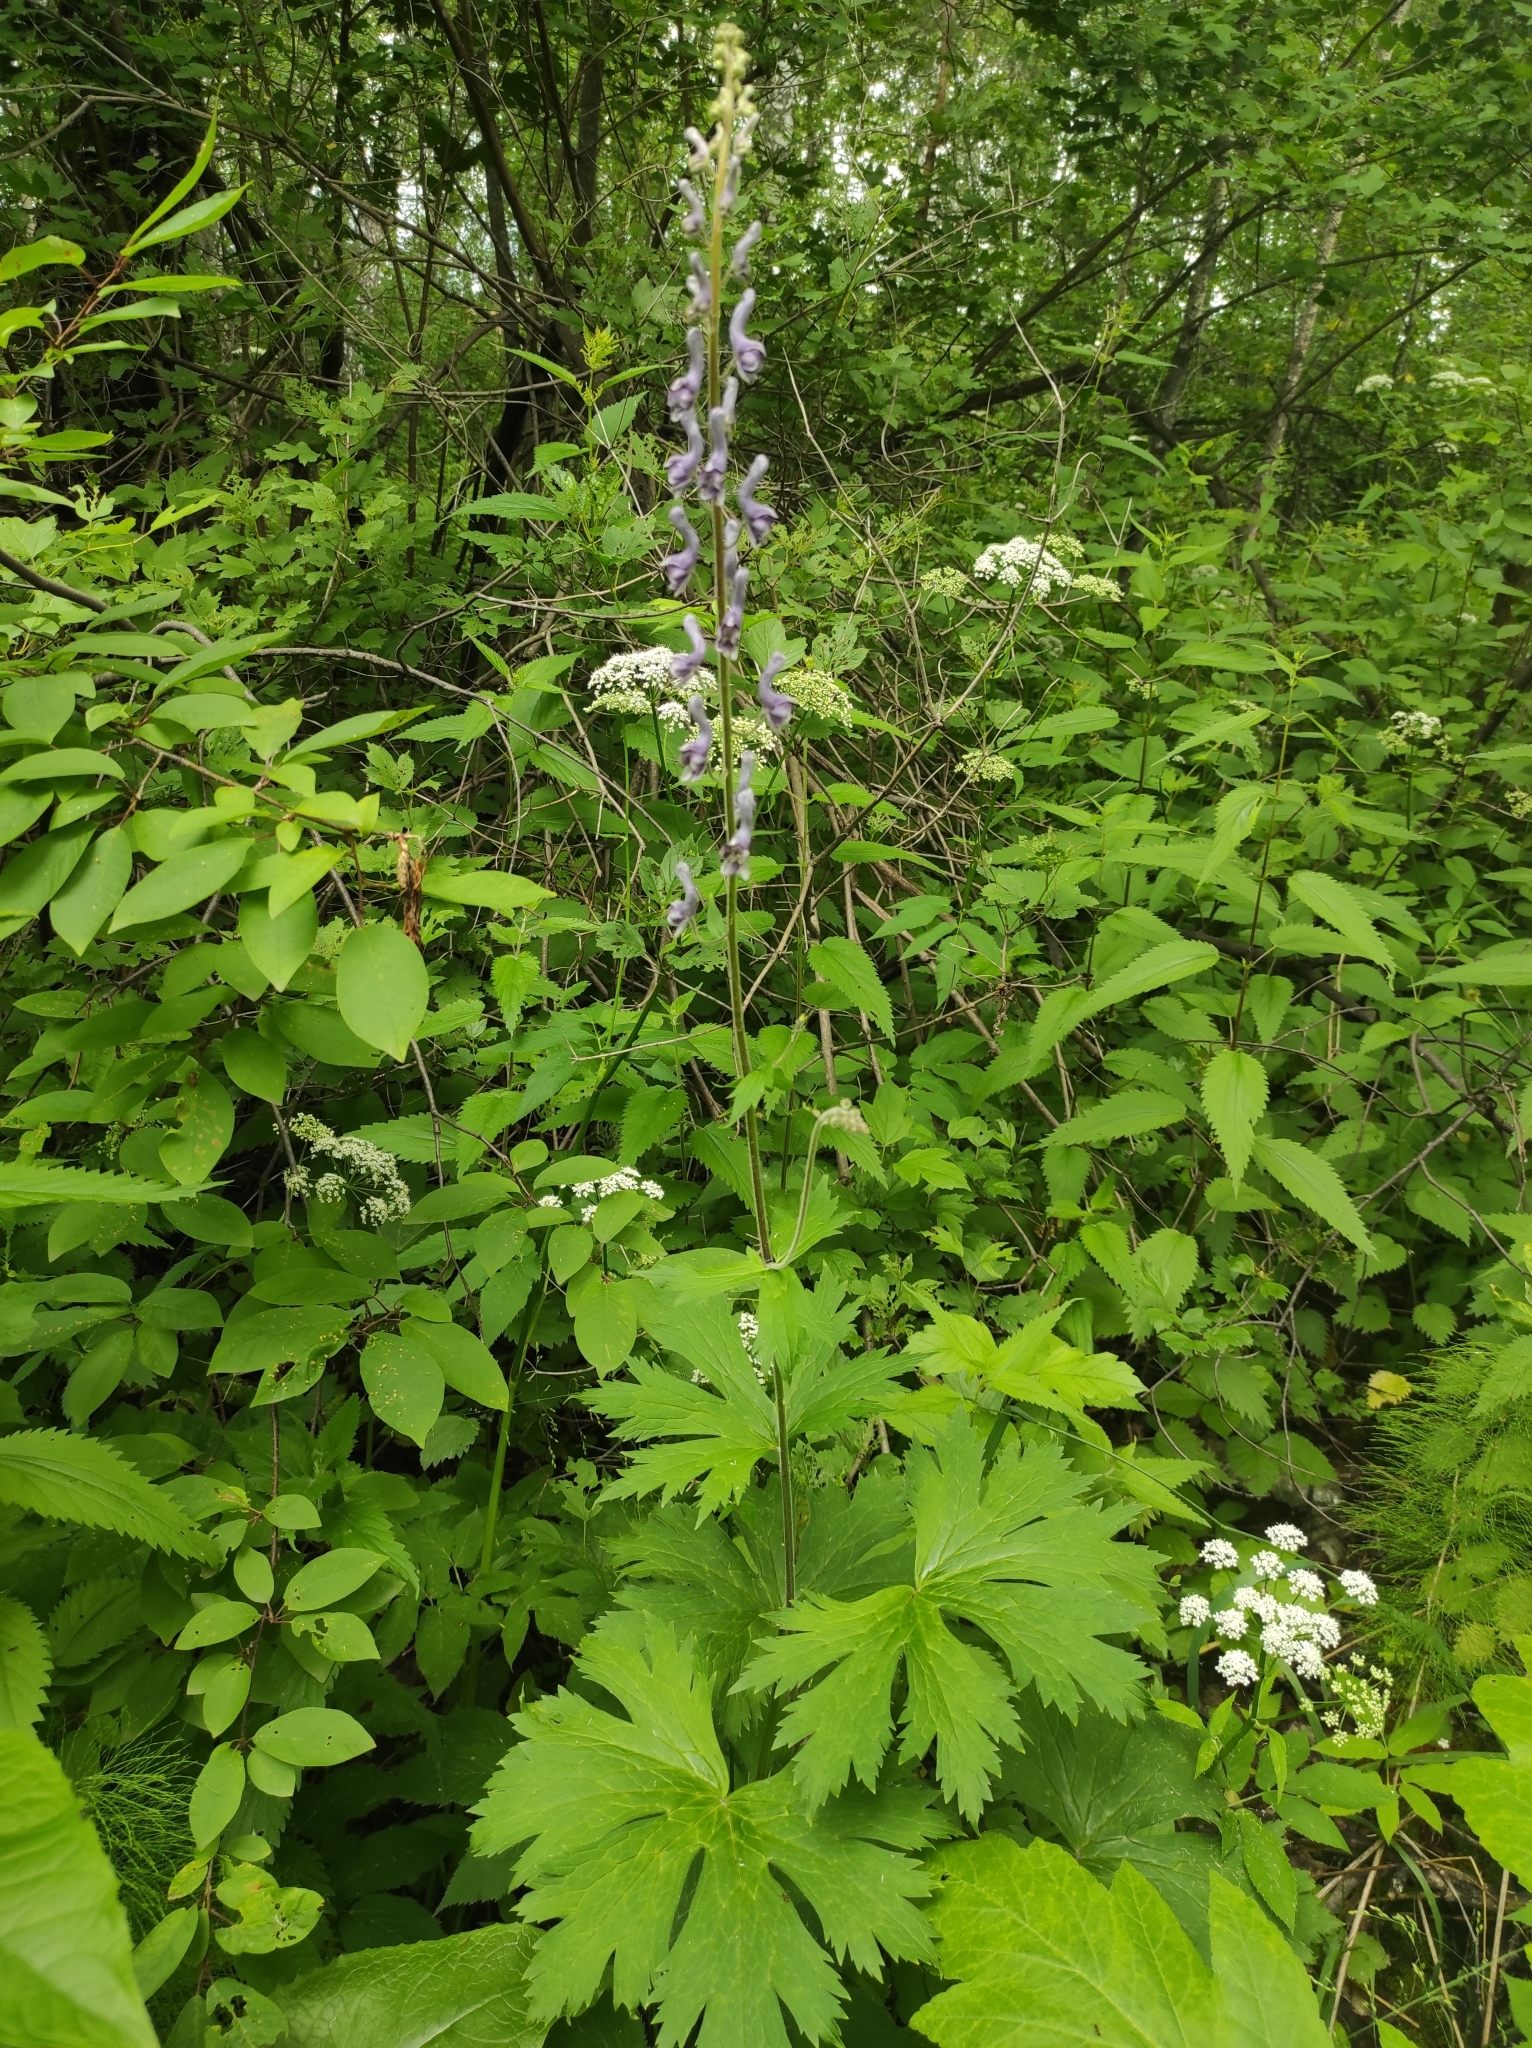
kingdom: Plantae
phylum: Tracheophyta
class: Magnoliopsida
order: Ranunculales
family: Ranunculaceae
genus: Aconitum
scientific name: Aconitum septentrionale
